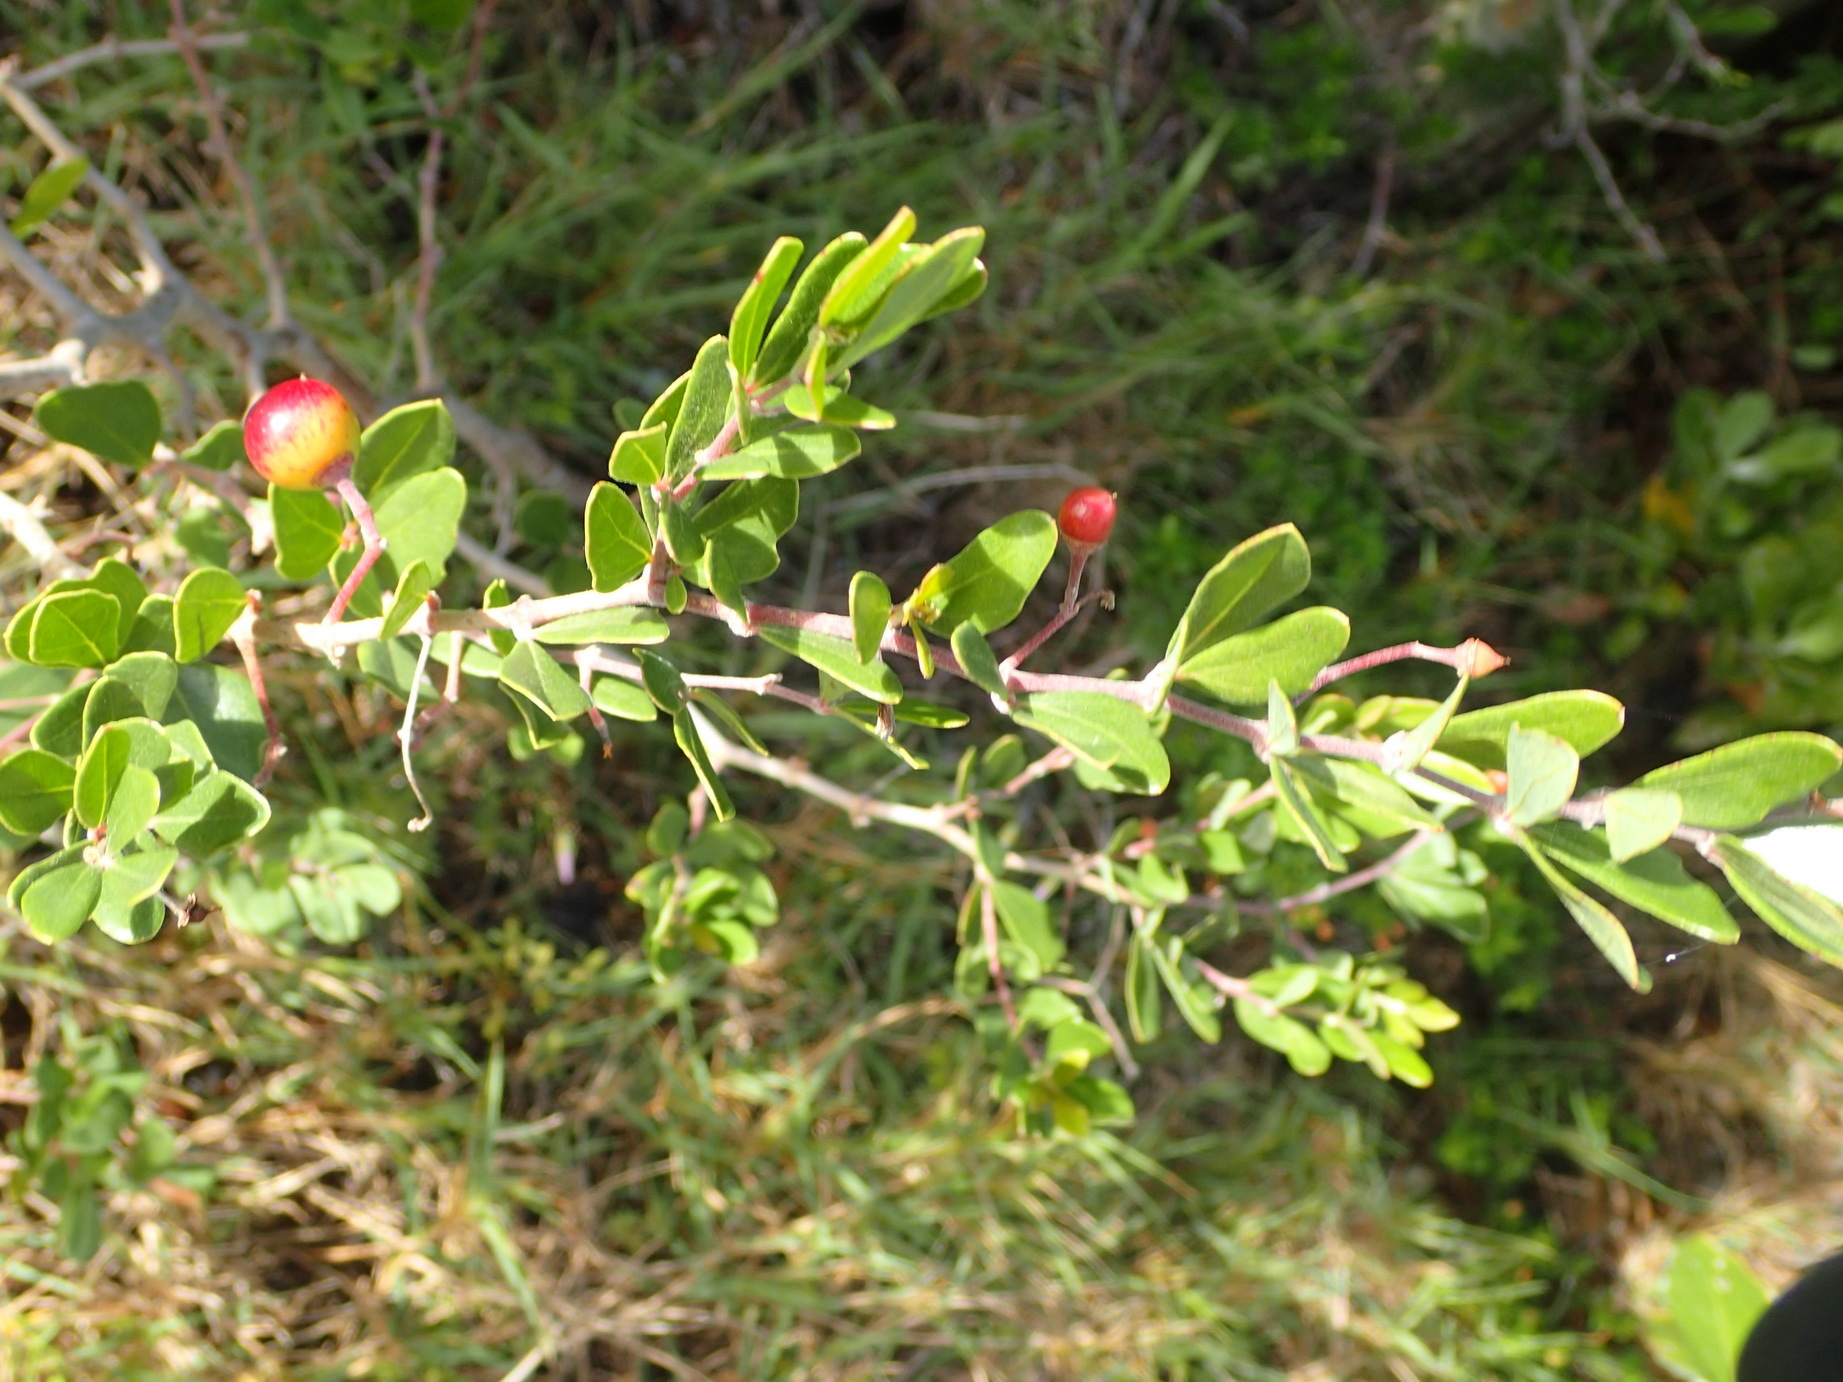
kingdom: Plantae
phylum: Tracheophyta
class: Magnoliopsida
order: Vitales
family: Vitaceae
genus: Rhoicissus
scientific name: Rhoicissus digitata
